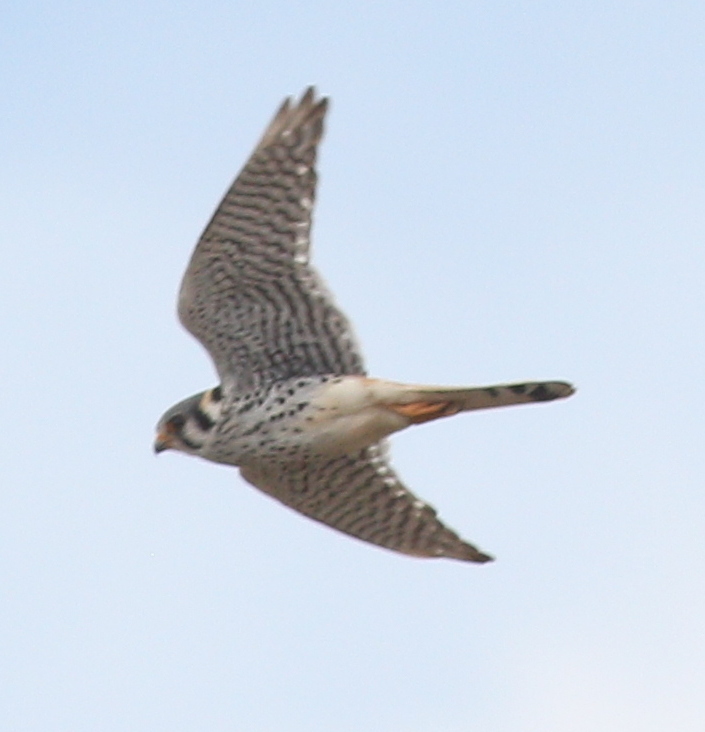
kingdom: Animalia
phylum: Chordata
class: Aves
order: Falconiformes
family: Falconidae
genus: Falco
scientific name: Falco sparverius
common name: American kestrel
